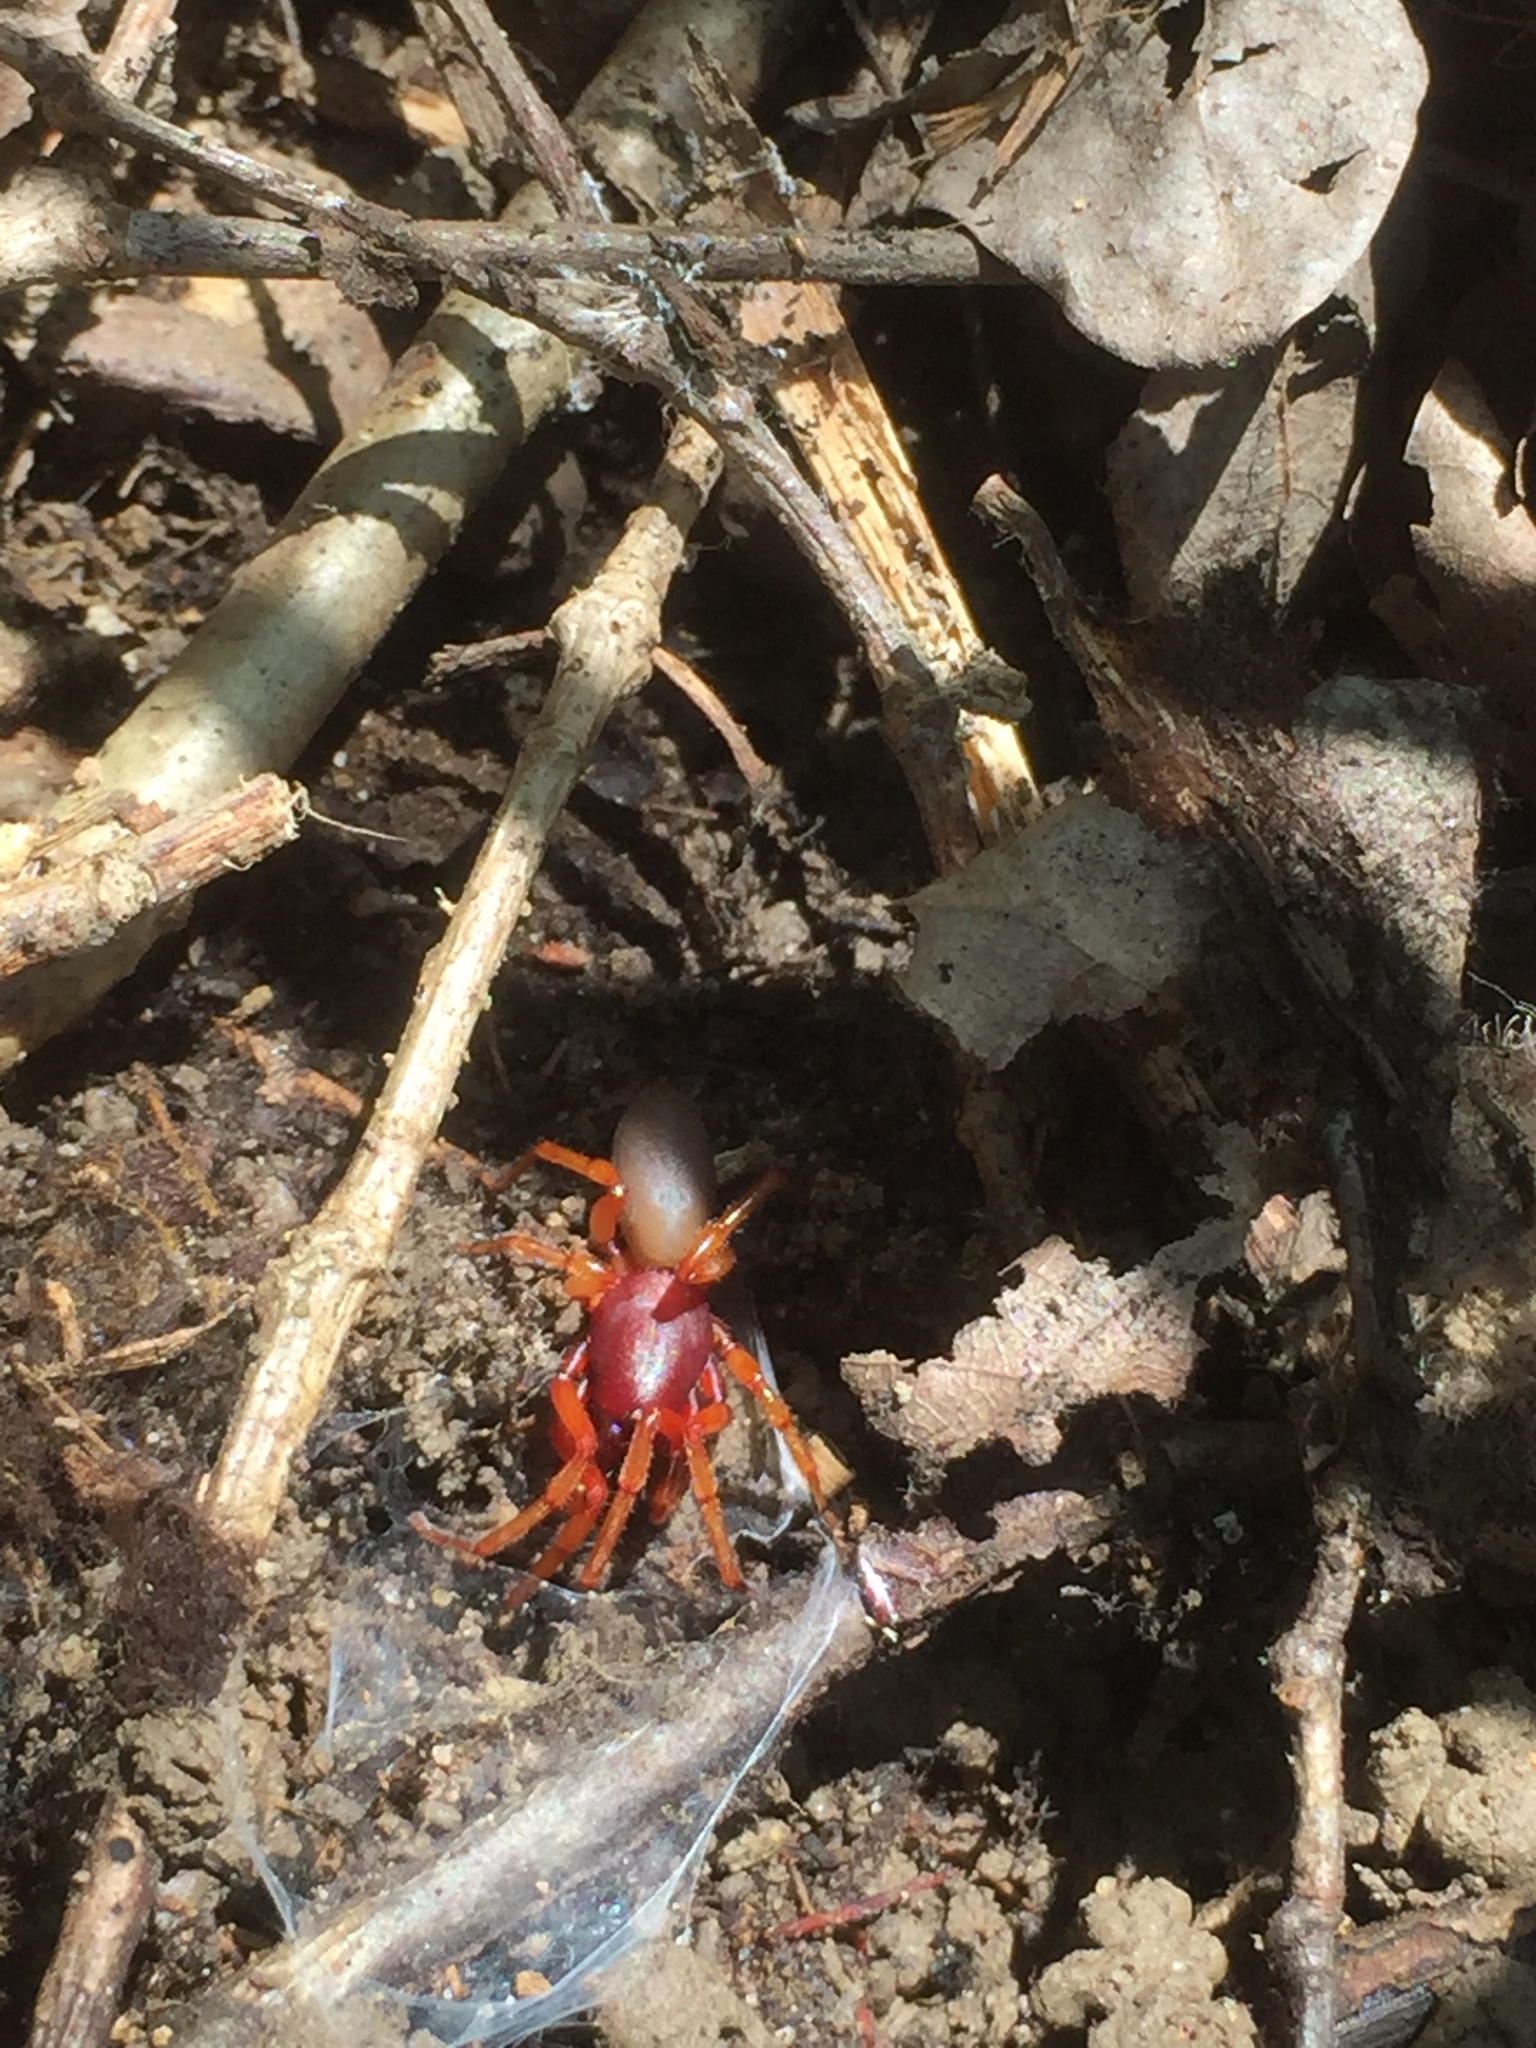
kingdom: Animalia
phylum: Arthropoda
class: Arachnida
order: Araneae
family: Dysderidae
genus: Dysdera
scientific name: Dysdera crocata
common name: Woodlouse spider
